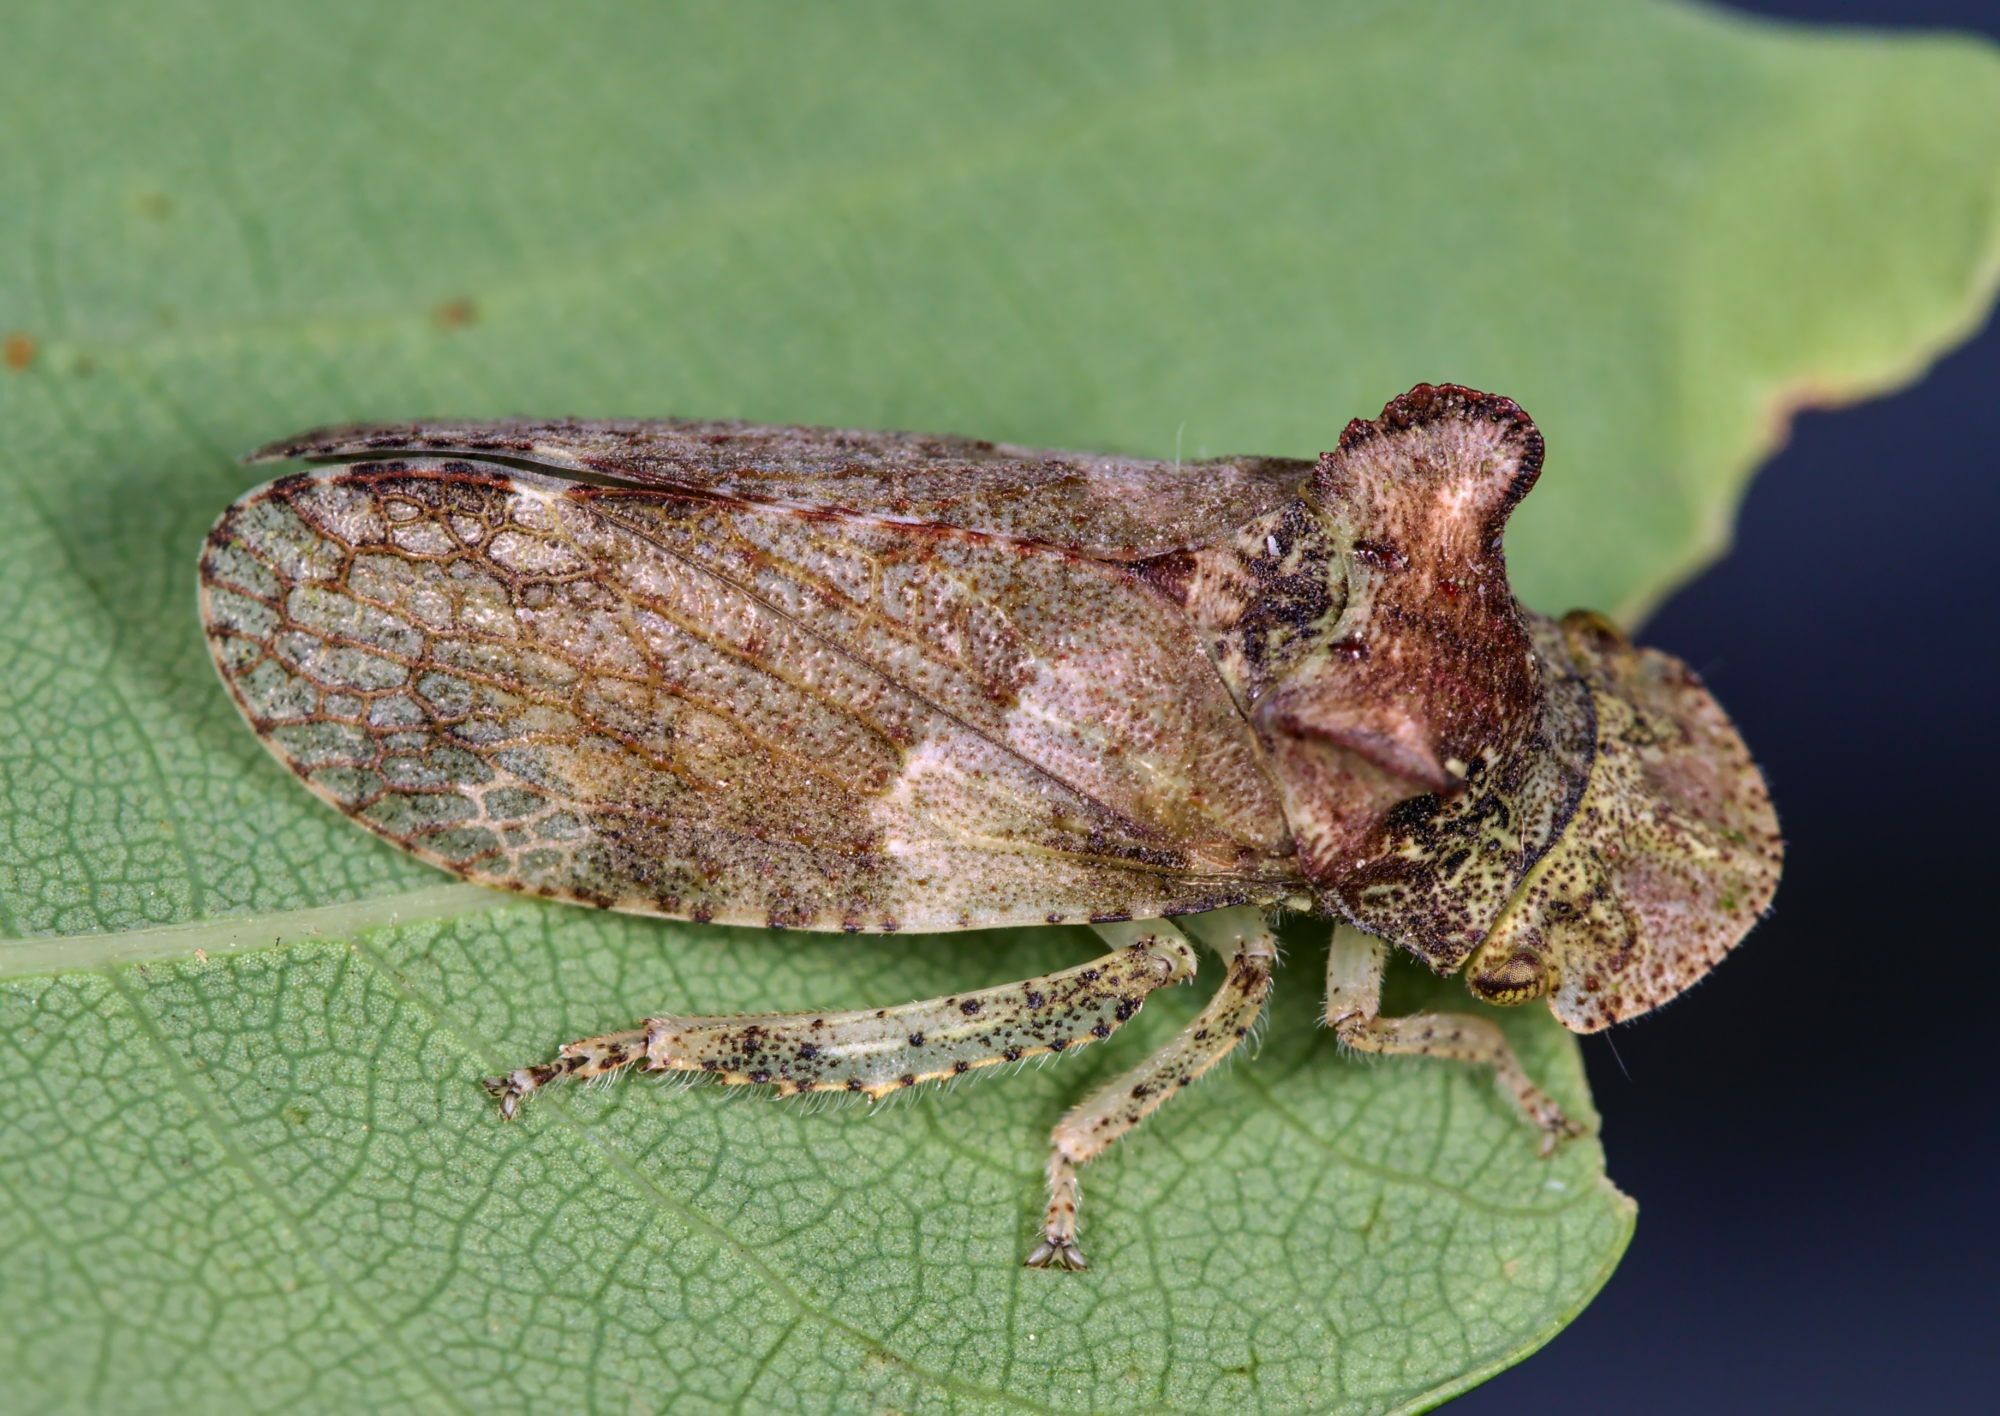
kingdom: Animalia
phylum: Arthropoda
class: Insecta
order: Hemiptera
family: Cicadellidae
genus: Ledra
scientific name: Ledra aurita
